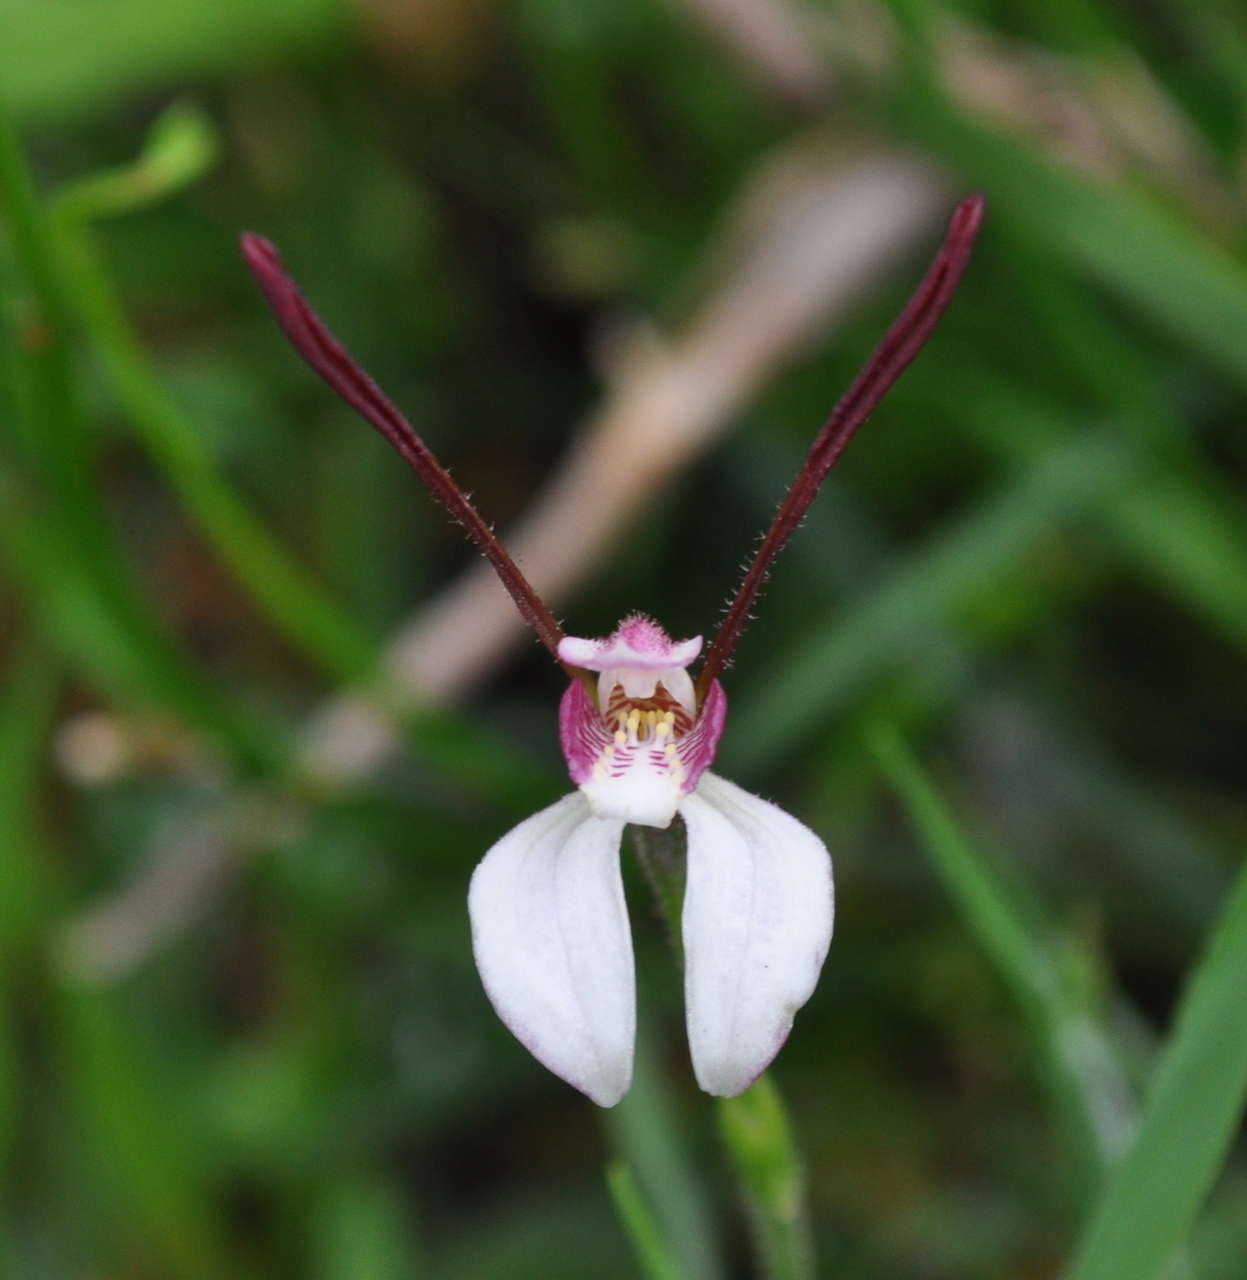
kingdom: Plantae
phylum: Tracheophyta
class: Liliopsida
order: Asparagales
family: Orchidaceae
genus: Leptoceras
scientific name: Leptoceras menziesii
